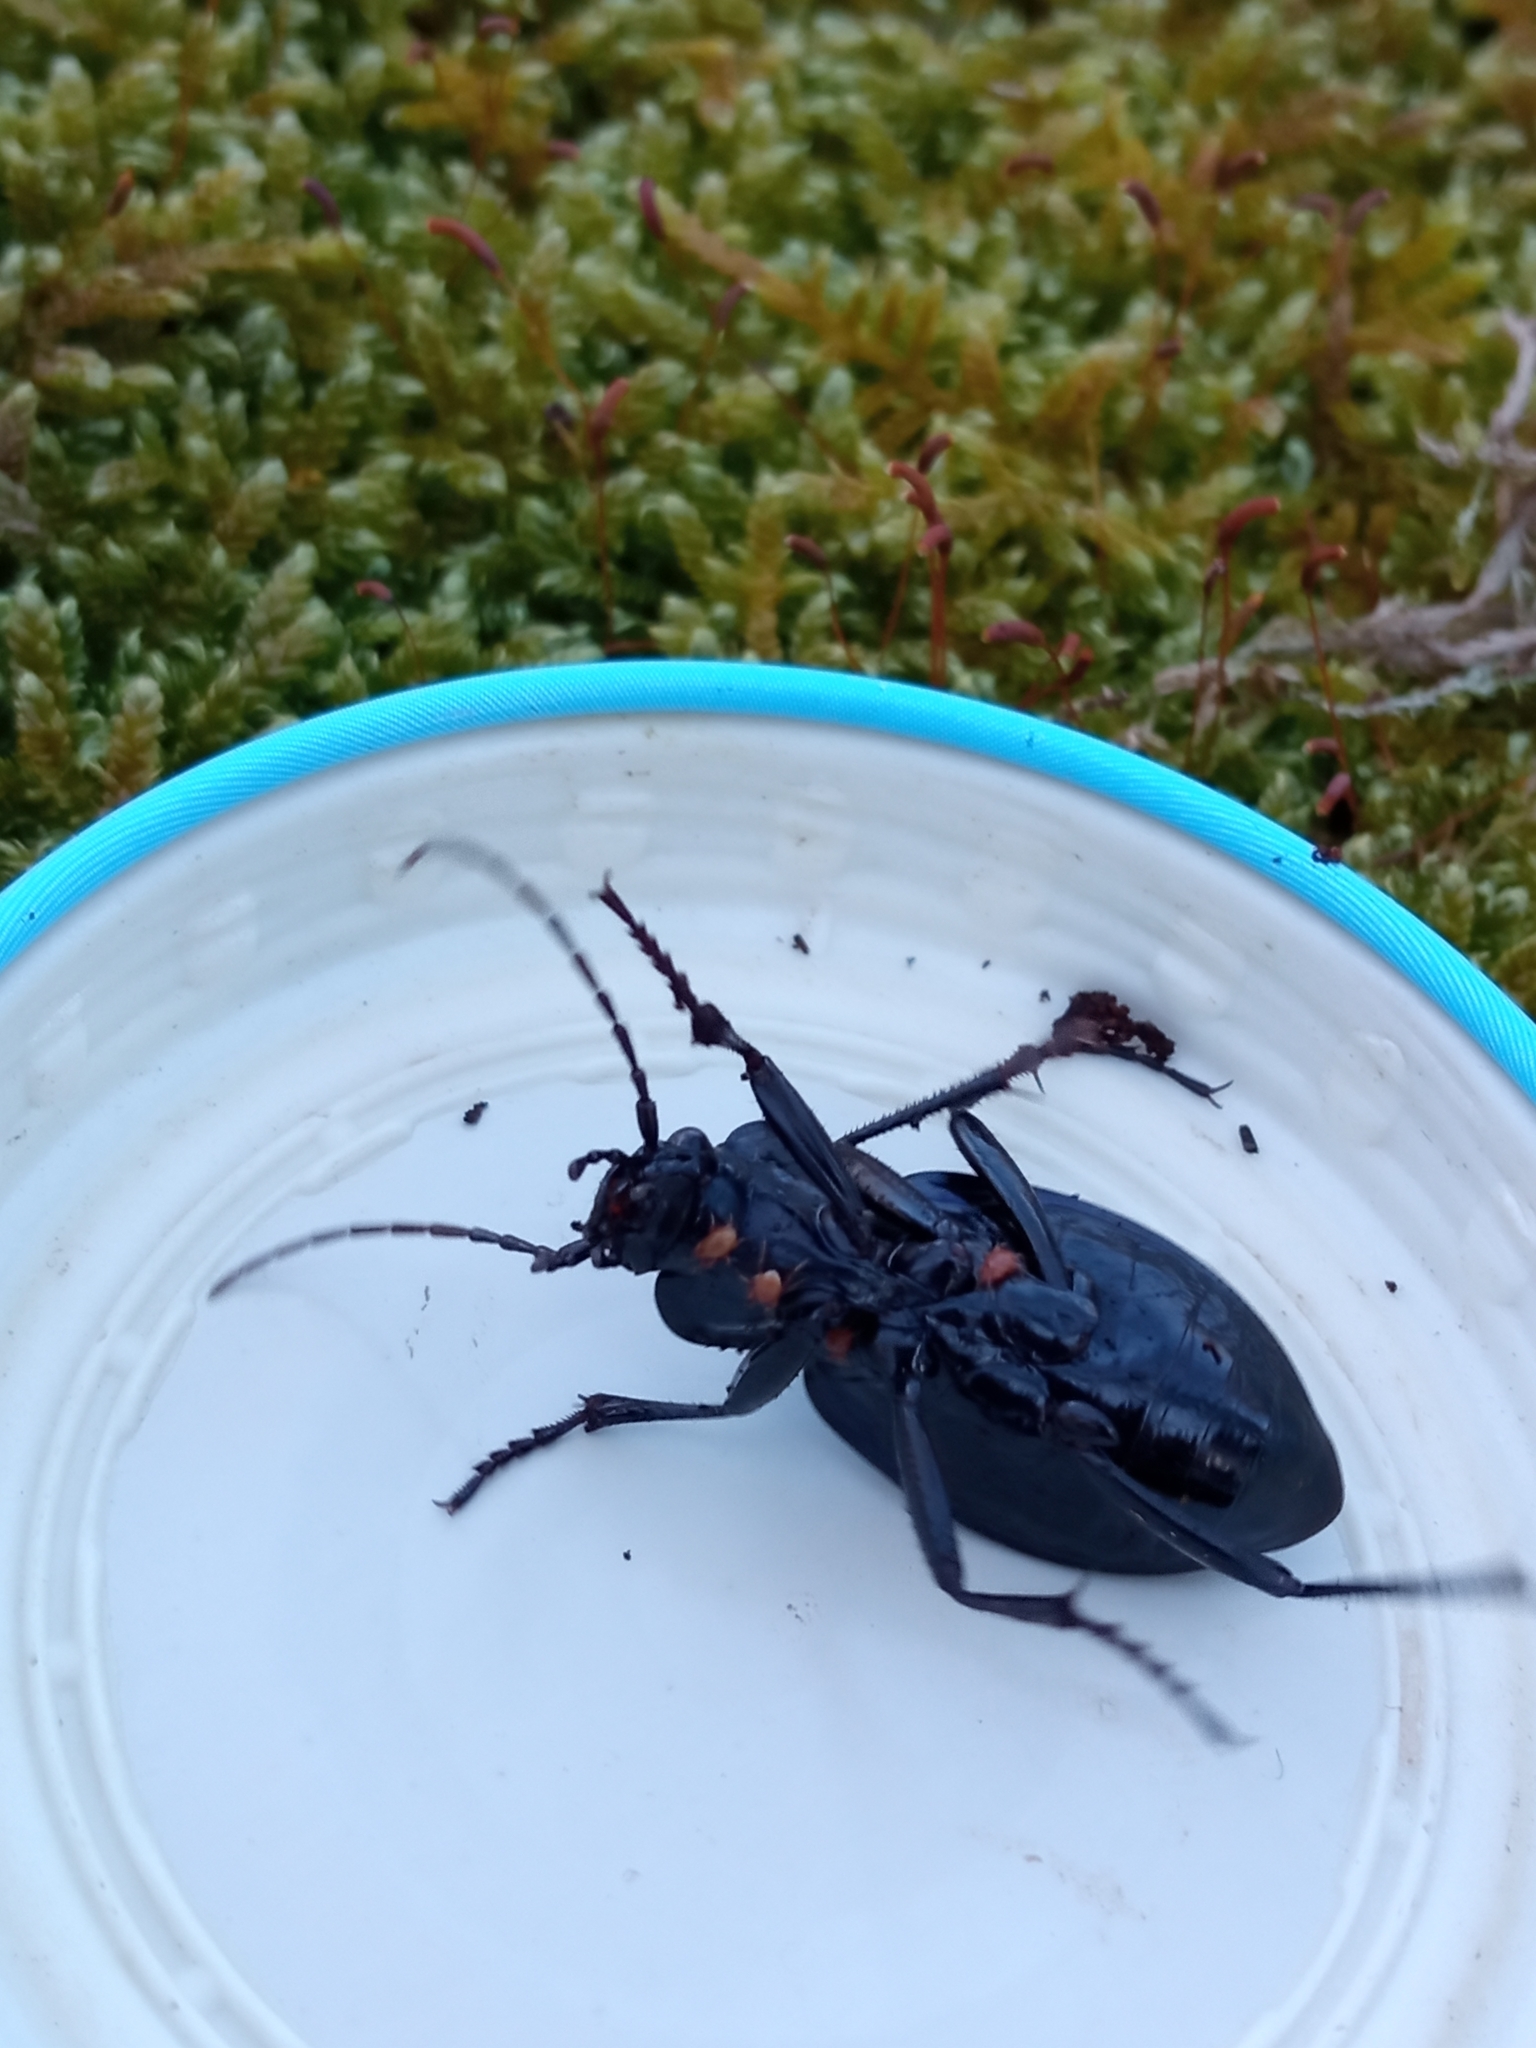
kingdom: Animalia
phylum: Arthropoda
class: Insecta
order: Coleoptera
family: Carabidae
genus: Carabus
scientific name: Carabus problematicus
